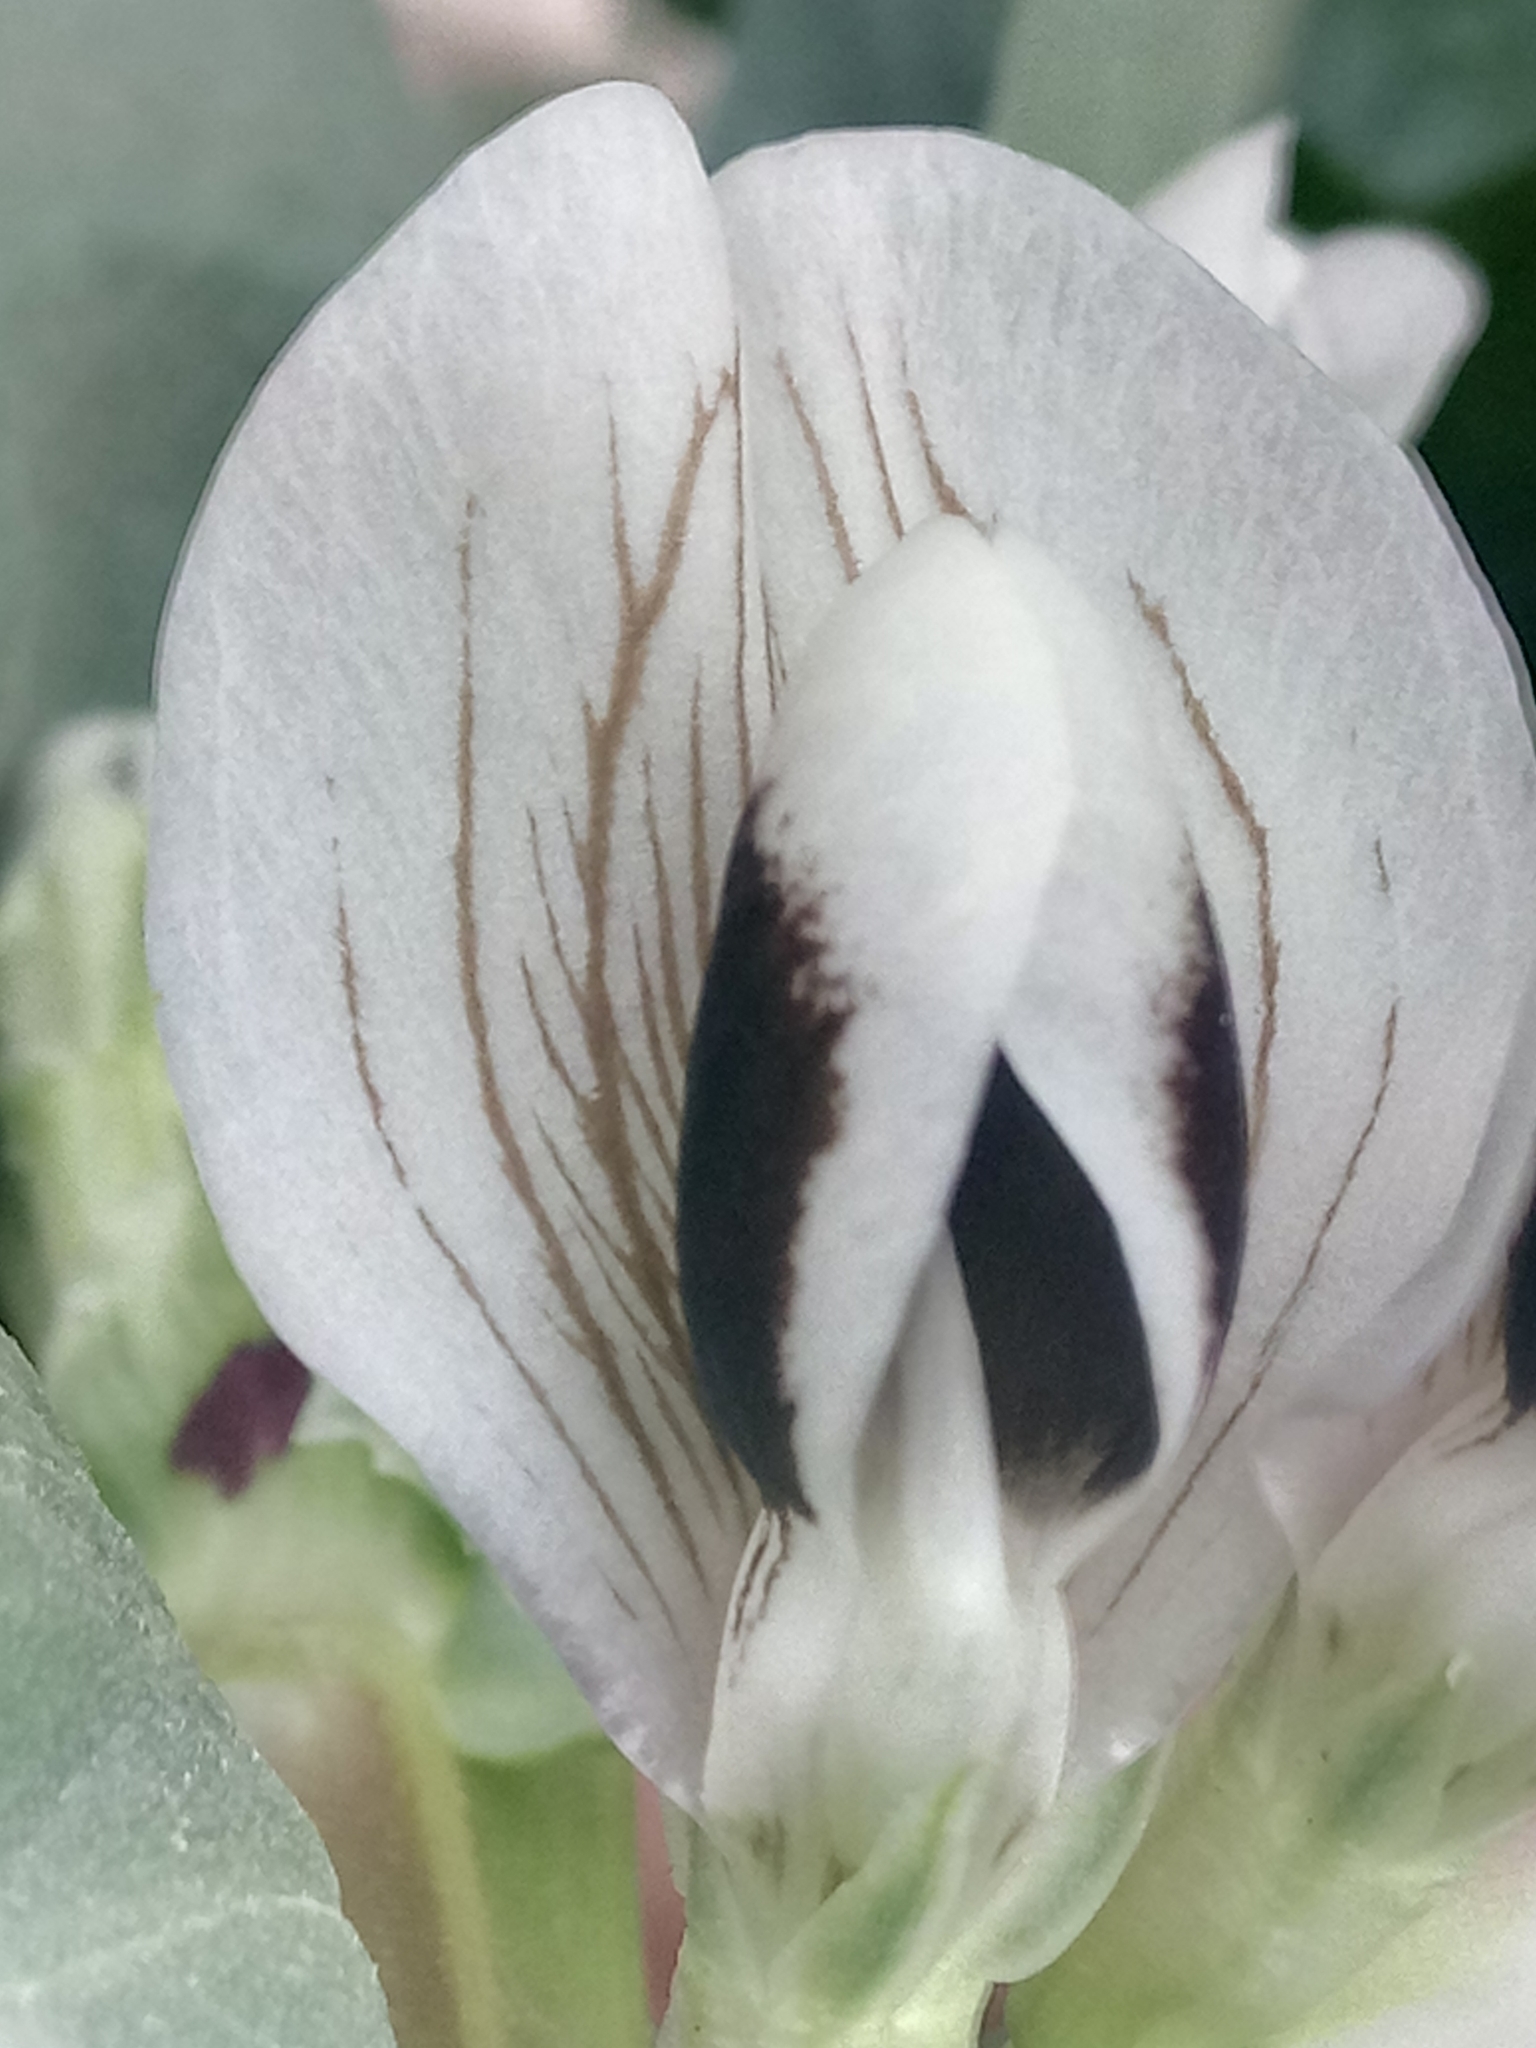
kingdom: Plantae
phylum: Tracheophyta
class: Magnoliopsida
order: Fabales
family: Fabaceae
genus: Vicia
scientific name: Vicia faba
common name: Broad bean
